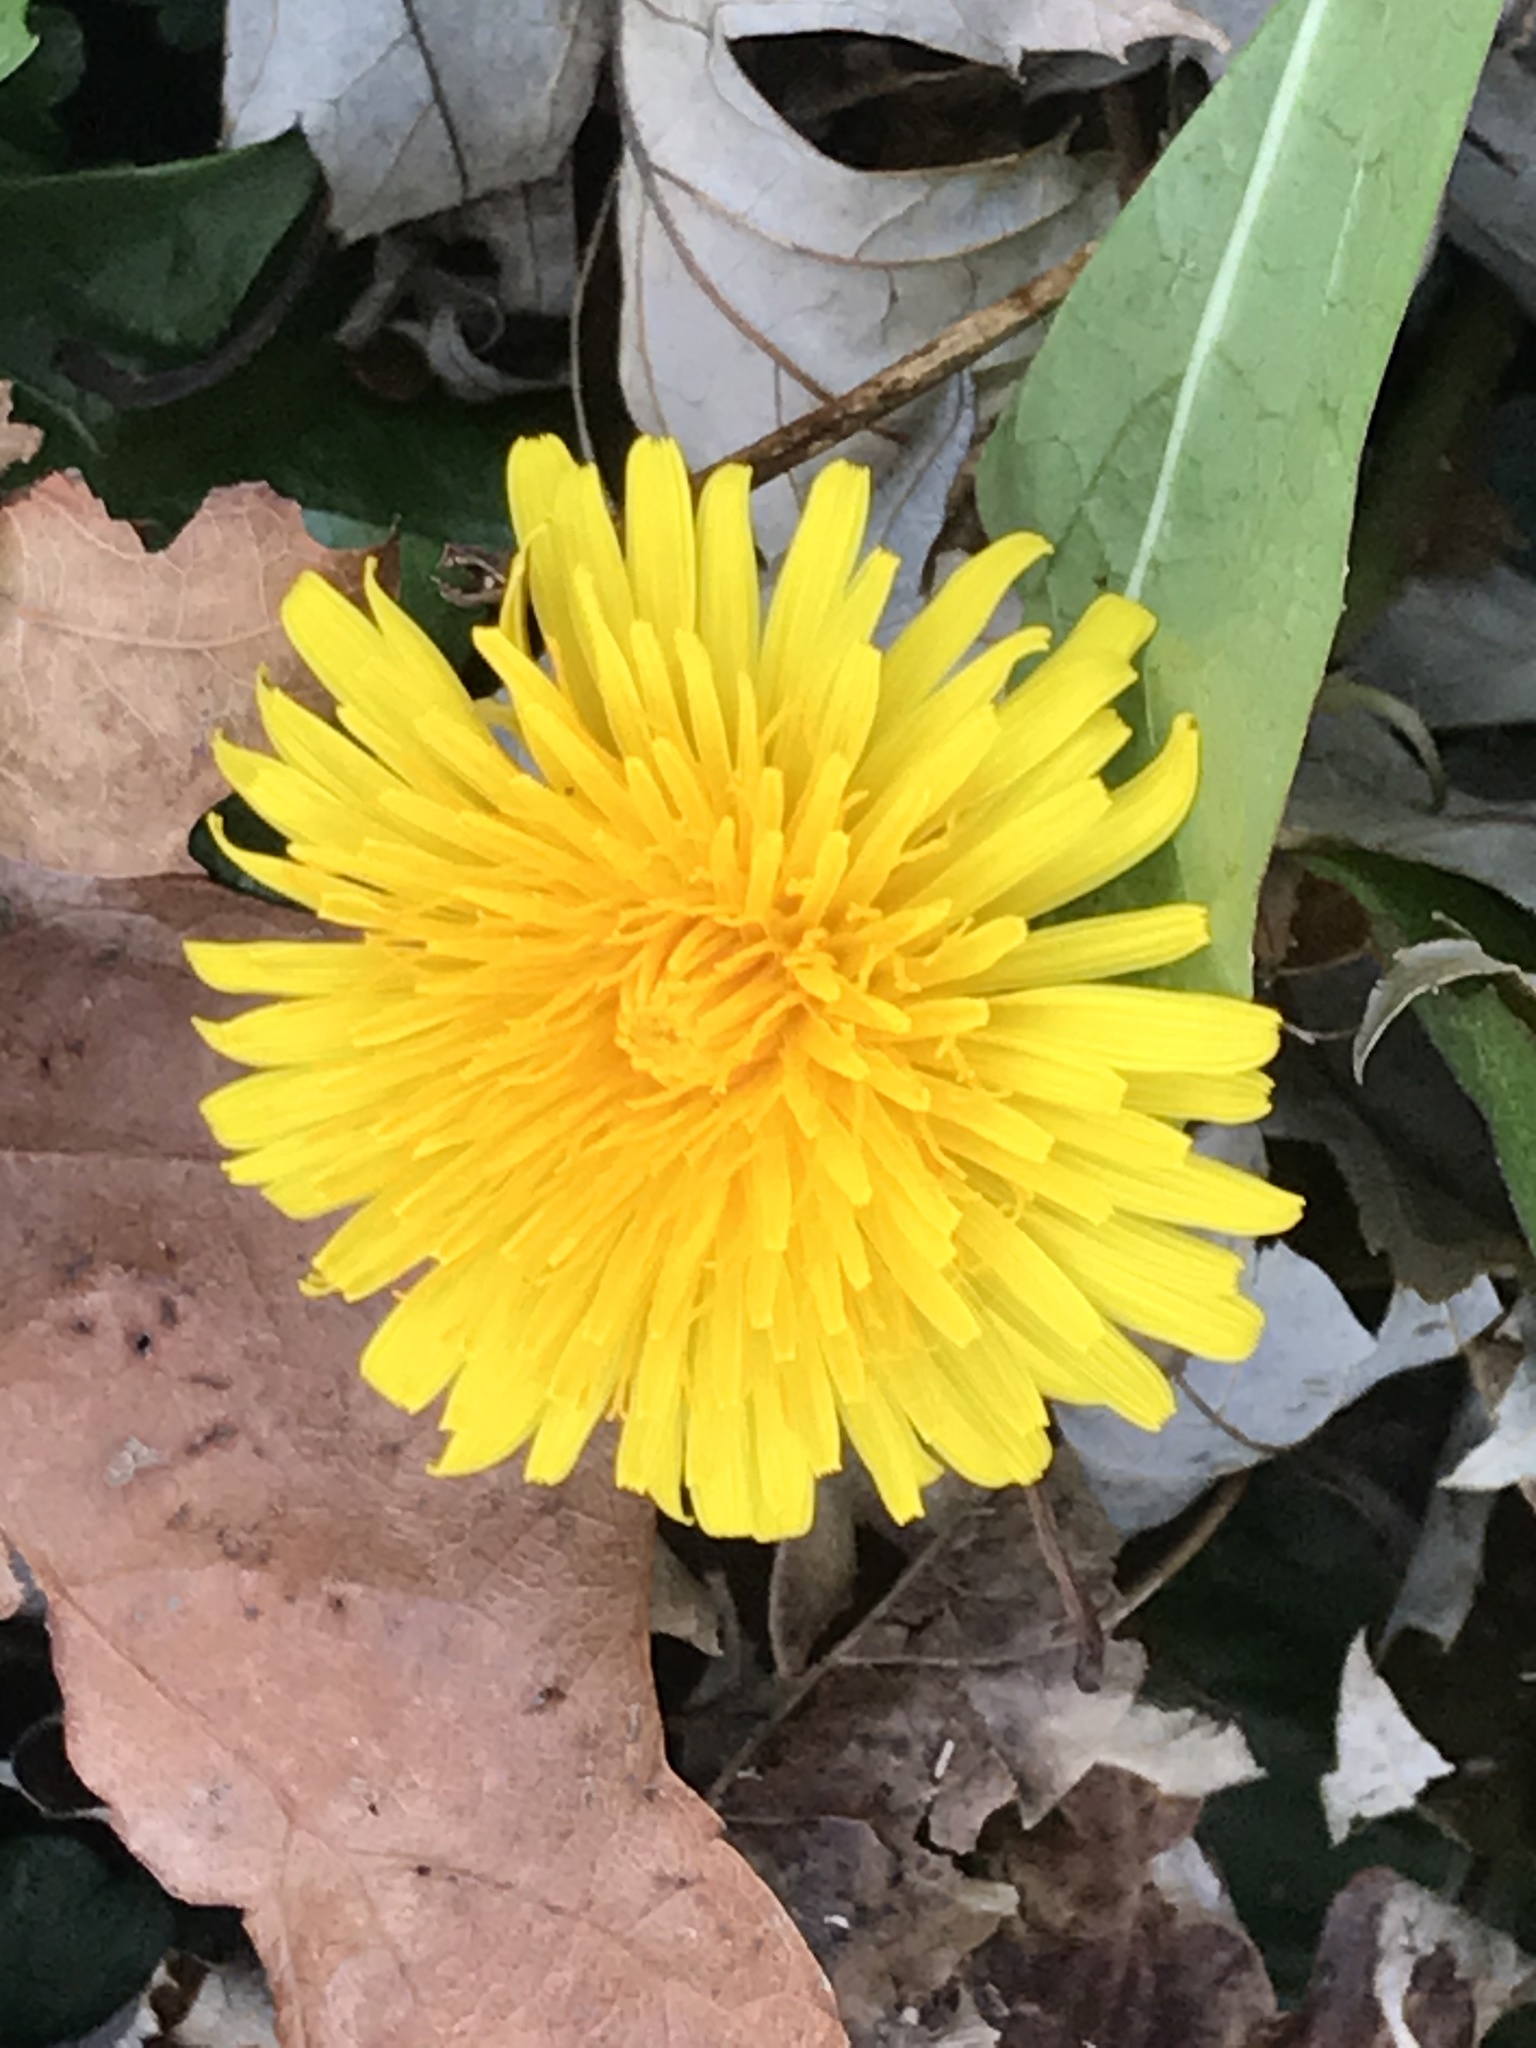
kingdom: Plantae
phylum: Tracheophyta
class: Magnoliopsida
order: Asterales
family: Asteraceae
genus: Taraxacum
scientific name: Taraxacum officinale
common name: Common dandelion
